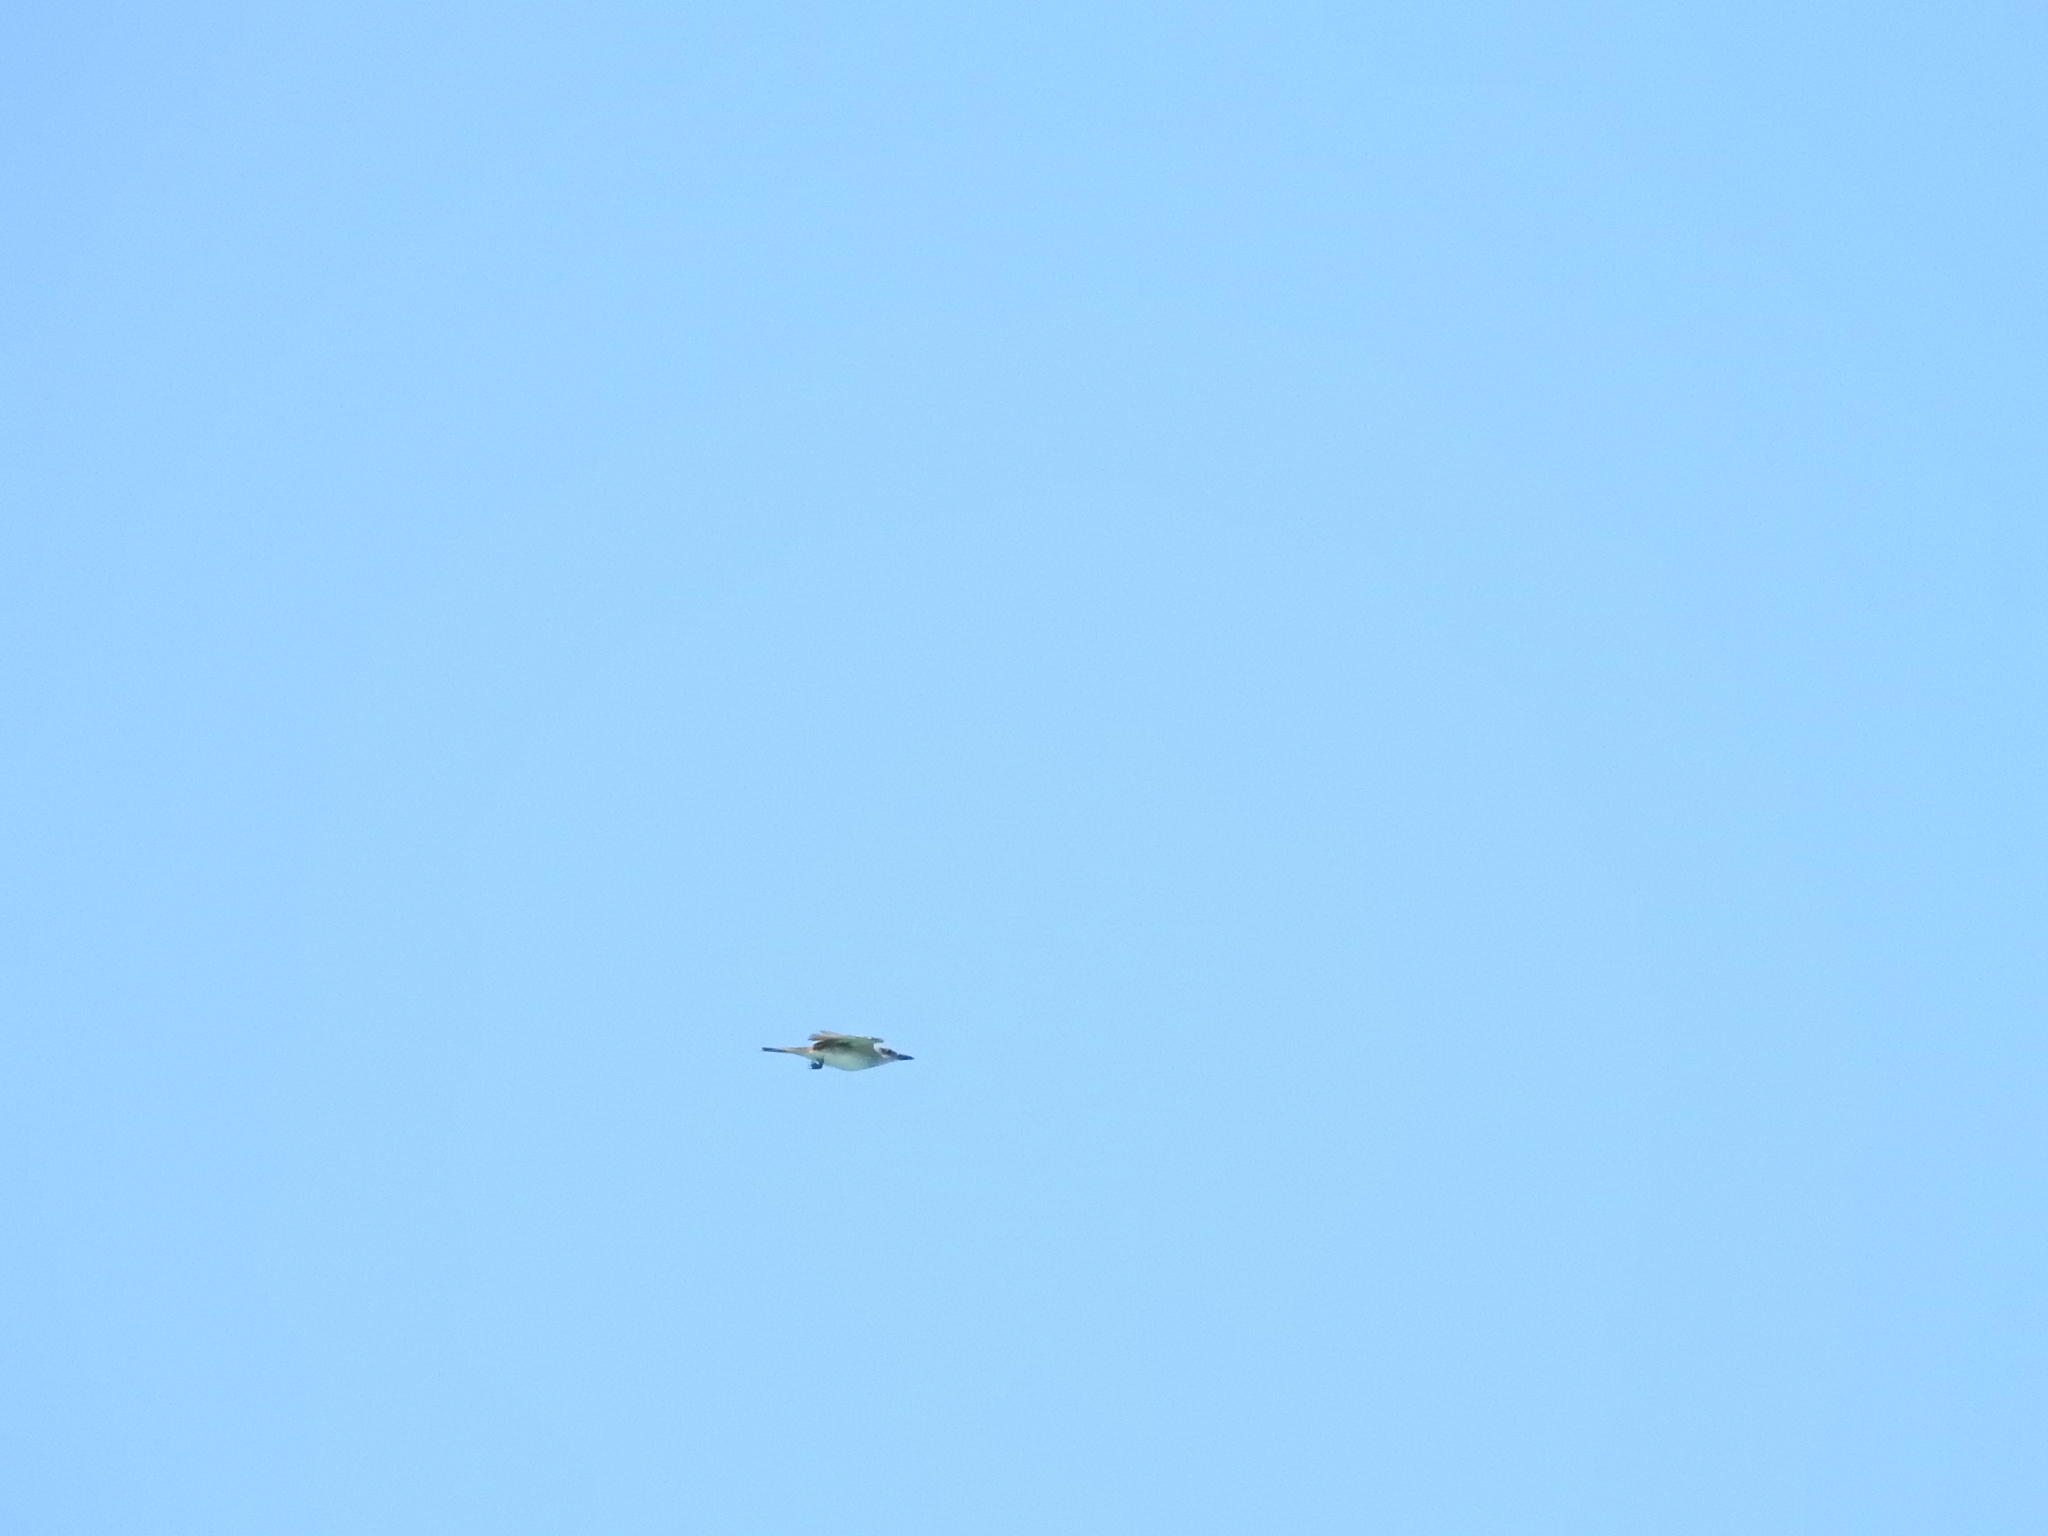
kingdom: Animalia
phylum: Chordata
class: Aves
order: Passeriformes
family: Tyrannidae
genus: Tyrannus
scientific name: Tyrannus dominicensis
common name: Gray kingbird
